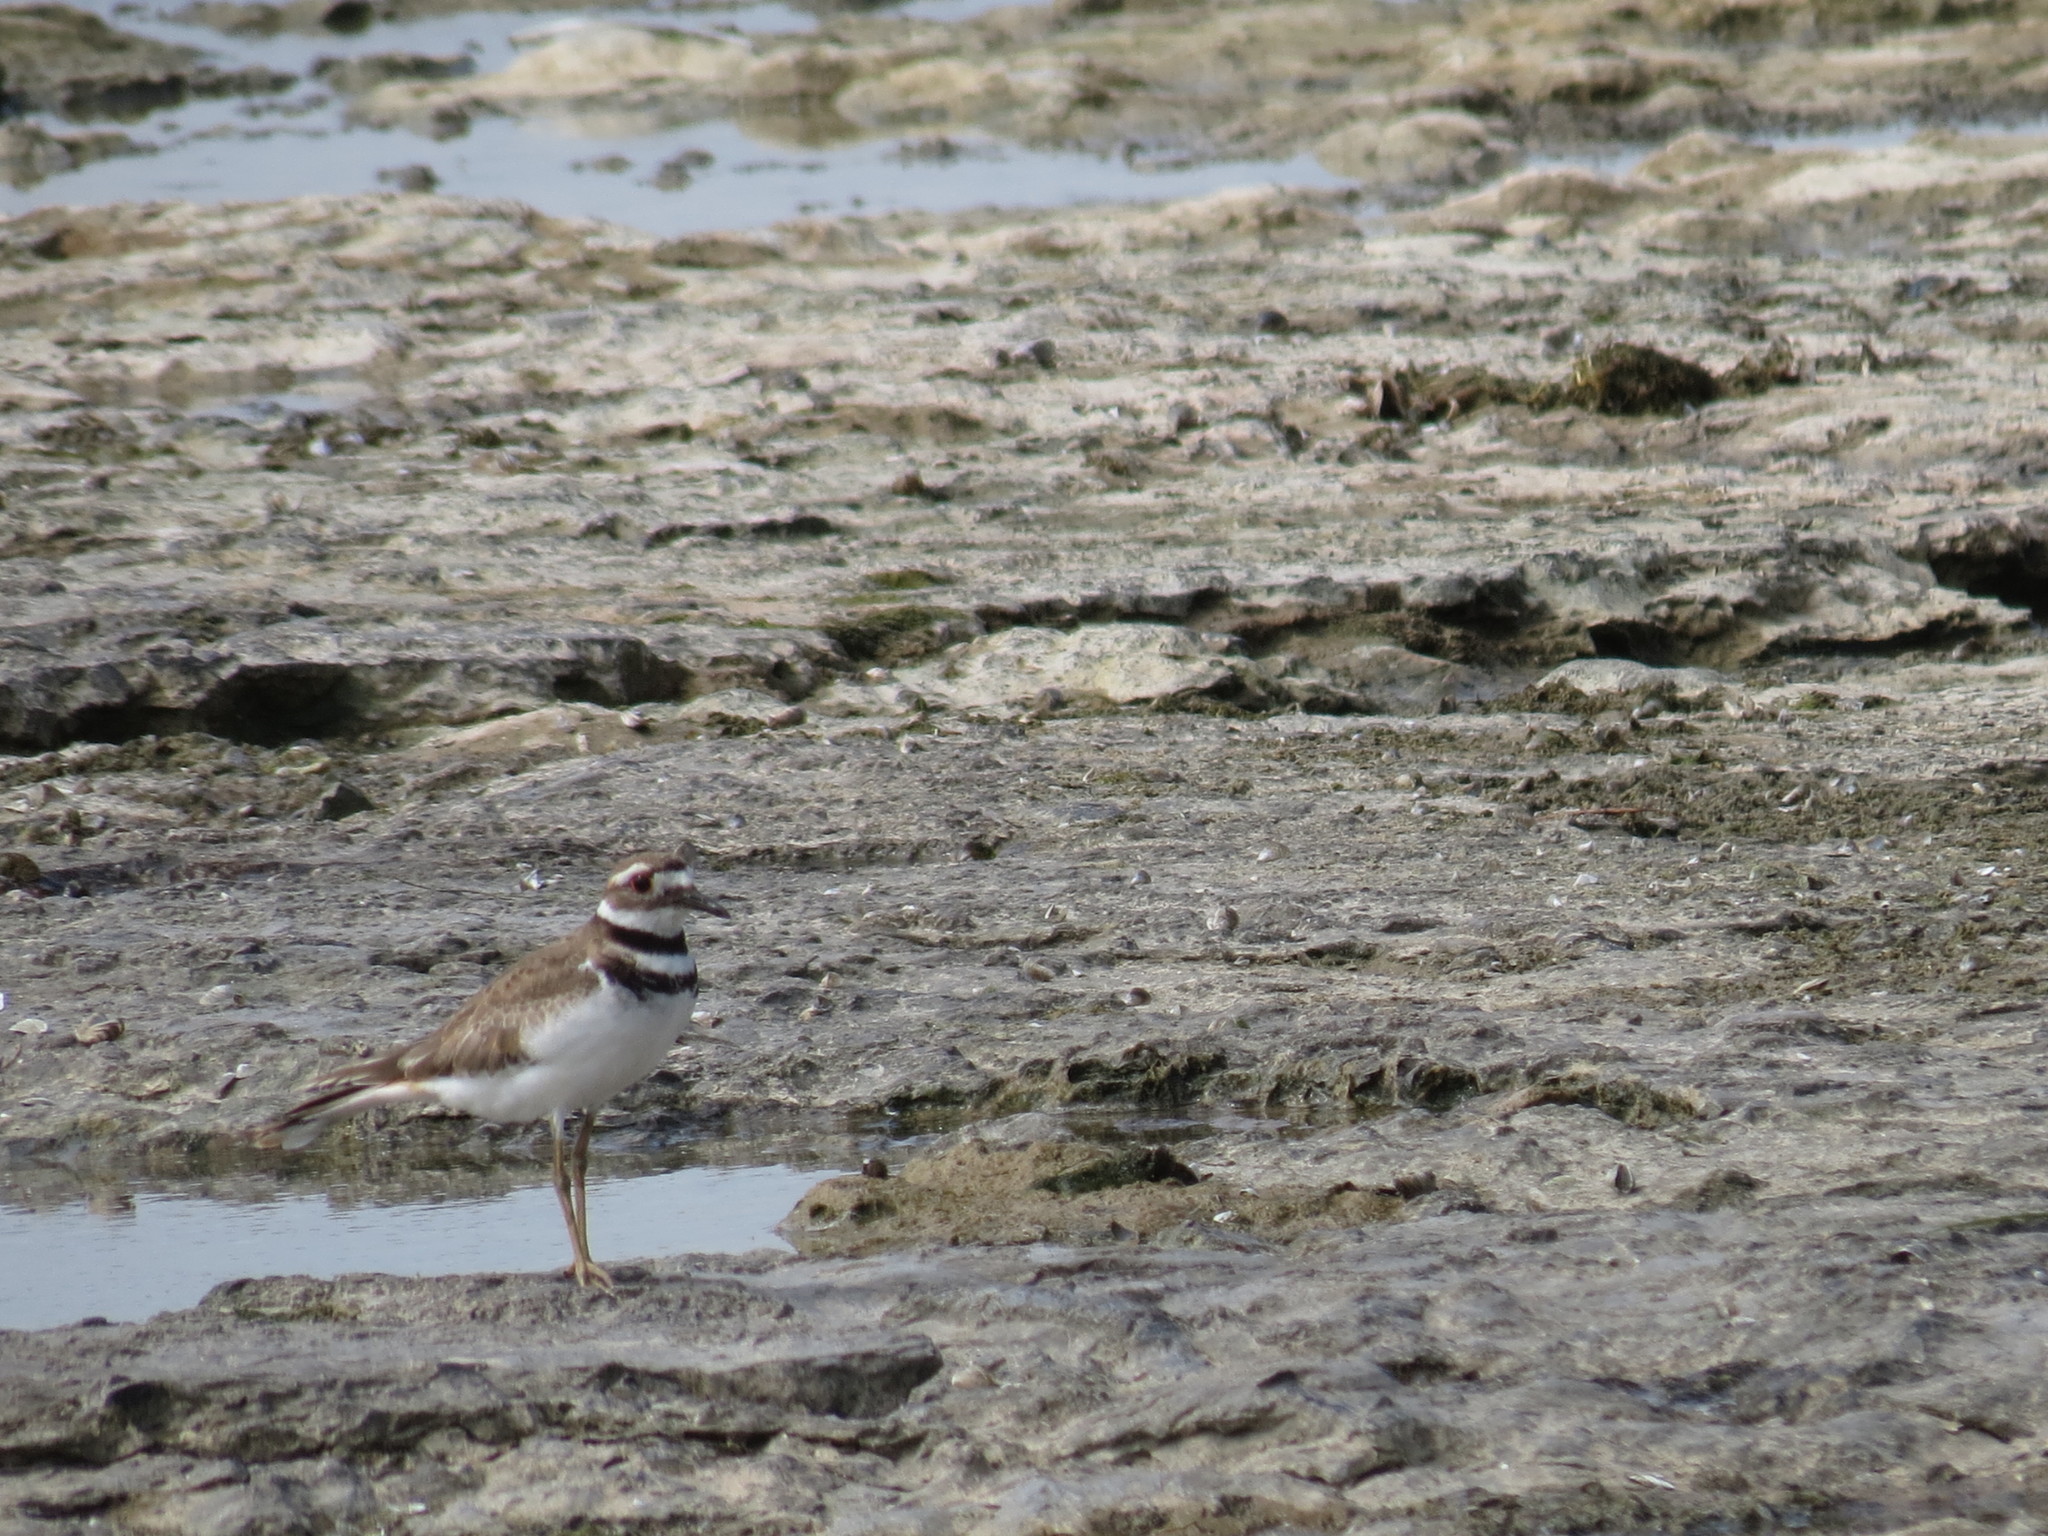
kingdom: Animalia
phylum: Chordata
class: Aves
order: Charadriiformes
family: Charadriidae
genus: Charadrius
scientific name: Charadrius vociferus
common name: Killdeer
